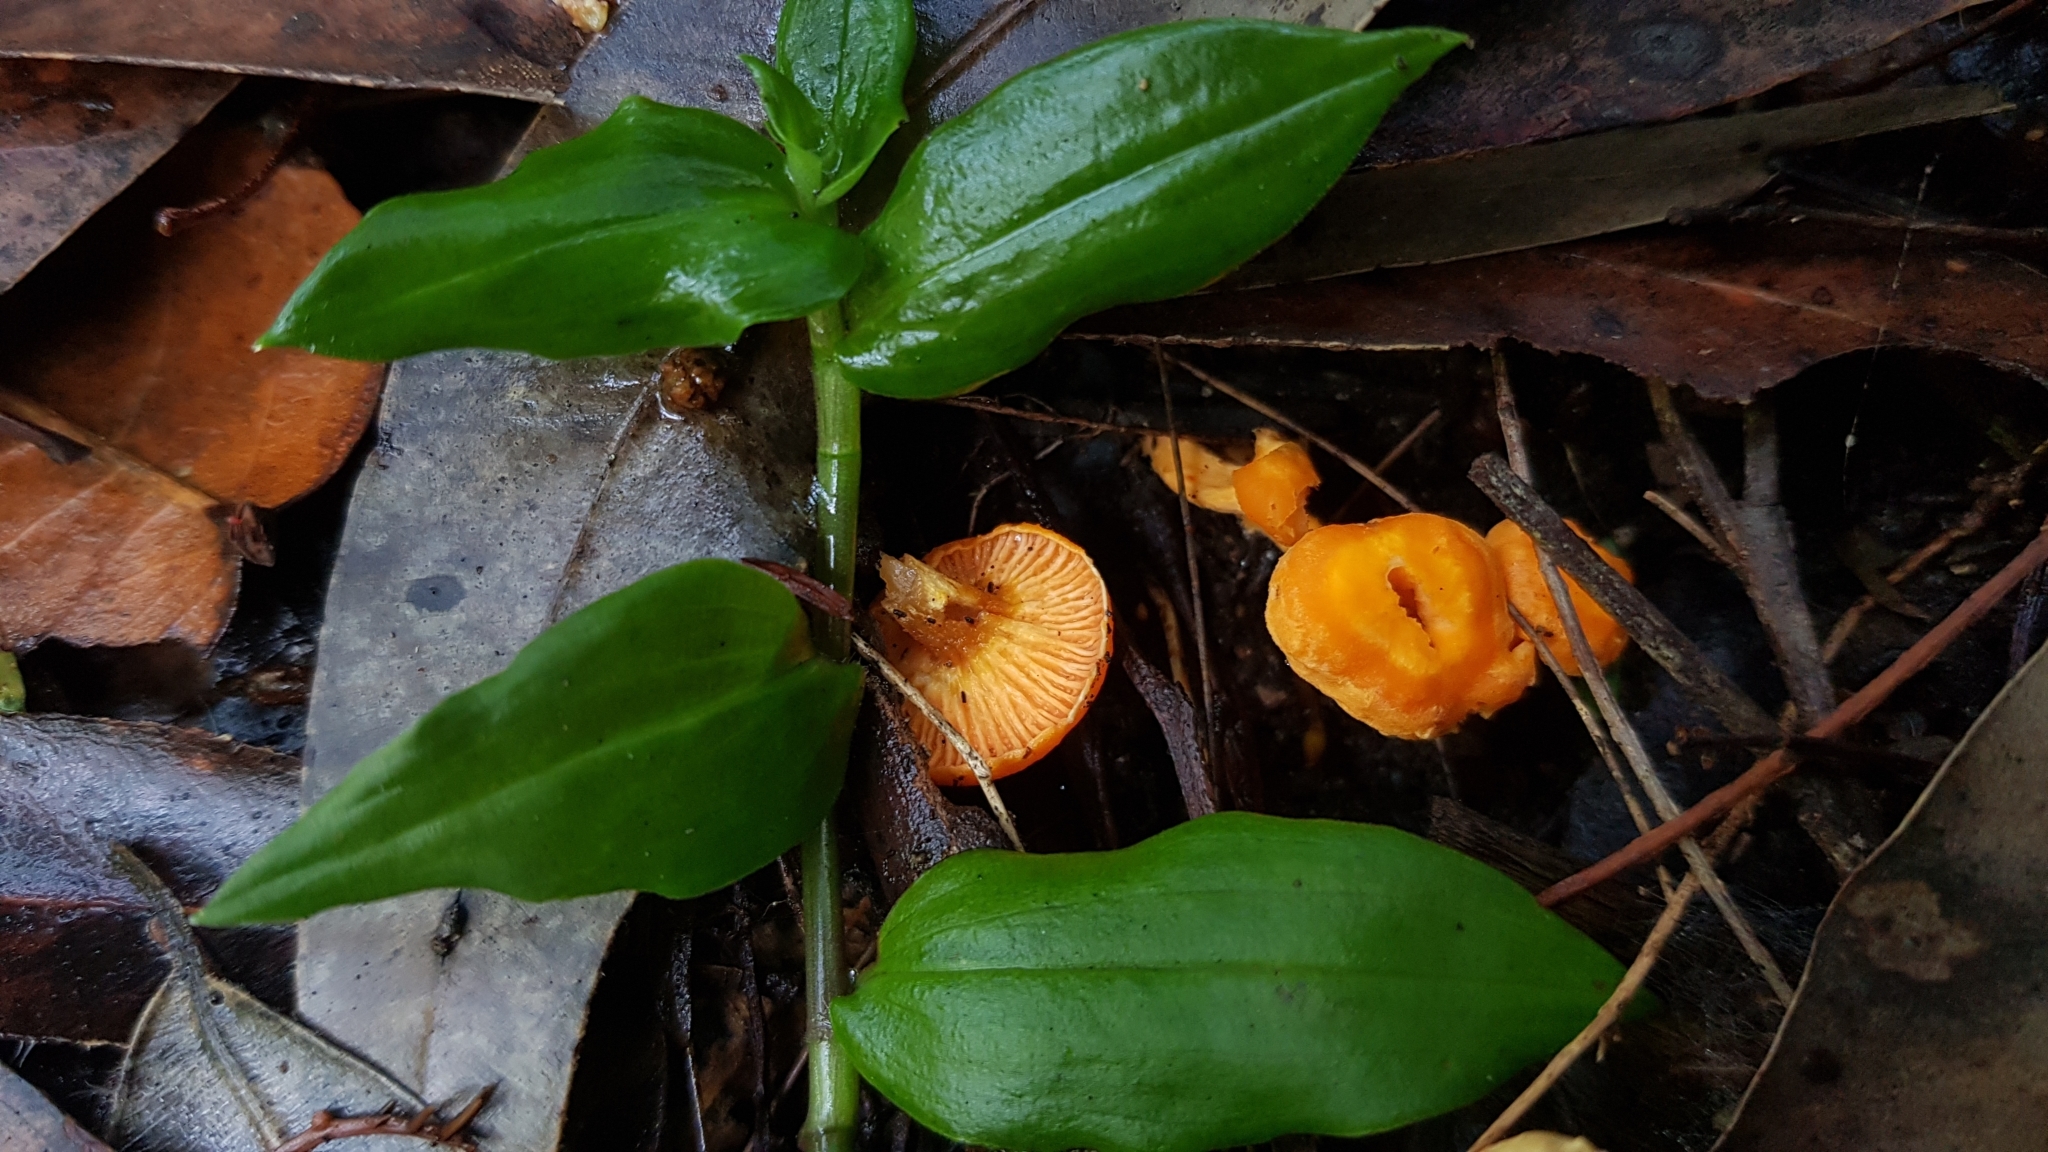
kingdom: Fungi
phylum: Basidiomycota
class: Agaricomycetes
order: Cantharellales
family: Hydnaceae
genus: Cantharellus
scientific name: Cantharellus
